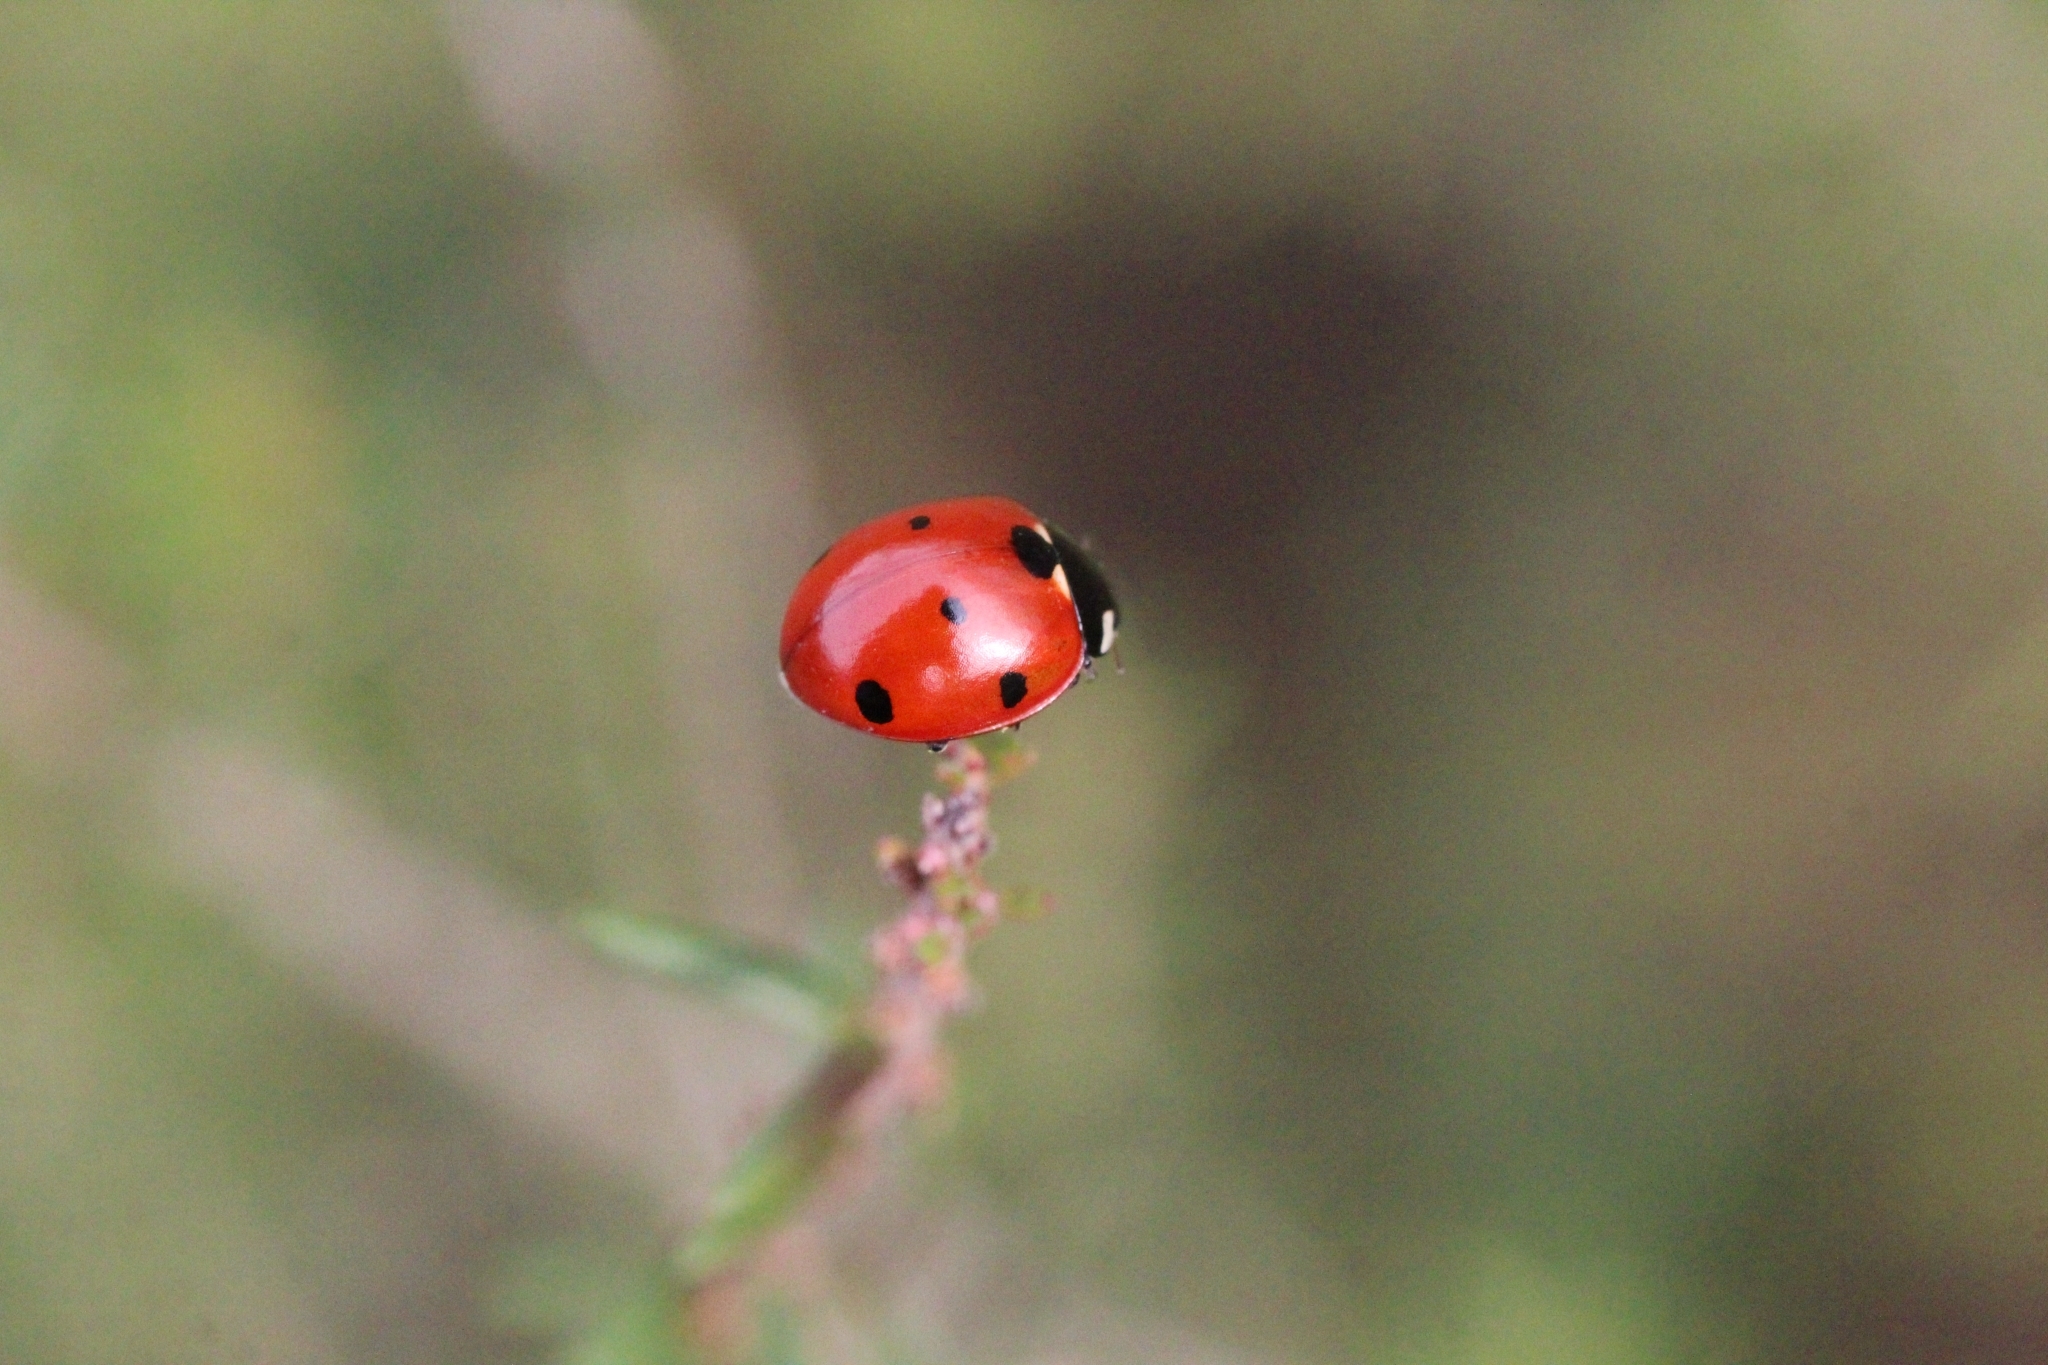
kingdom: Animalia
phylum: Arthropoda
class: Insecta
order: Coleoptera
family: Coccinellidae
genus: Coccinella
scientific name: Coccinella septempunctata
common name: Sevenspotted lady beetle
